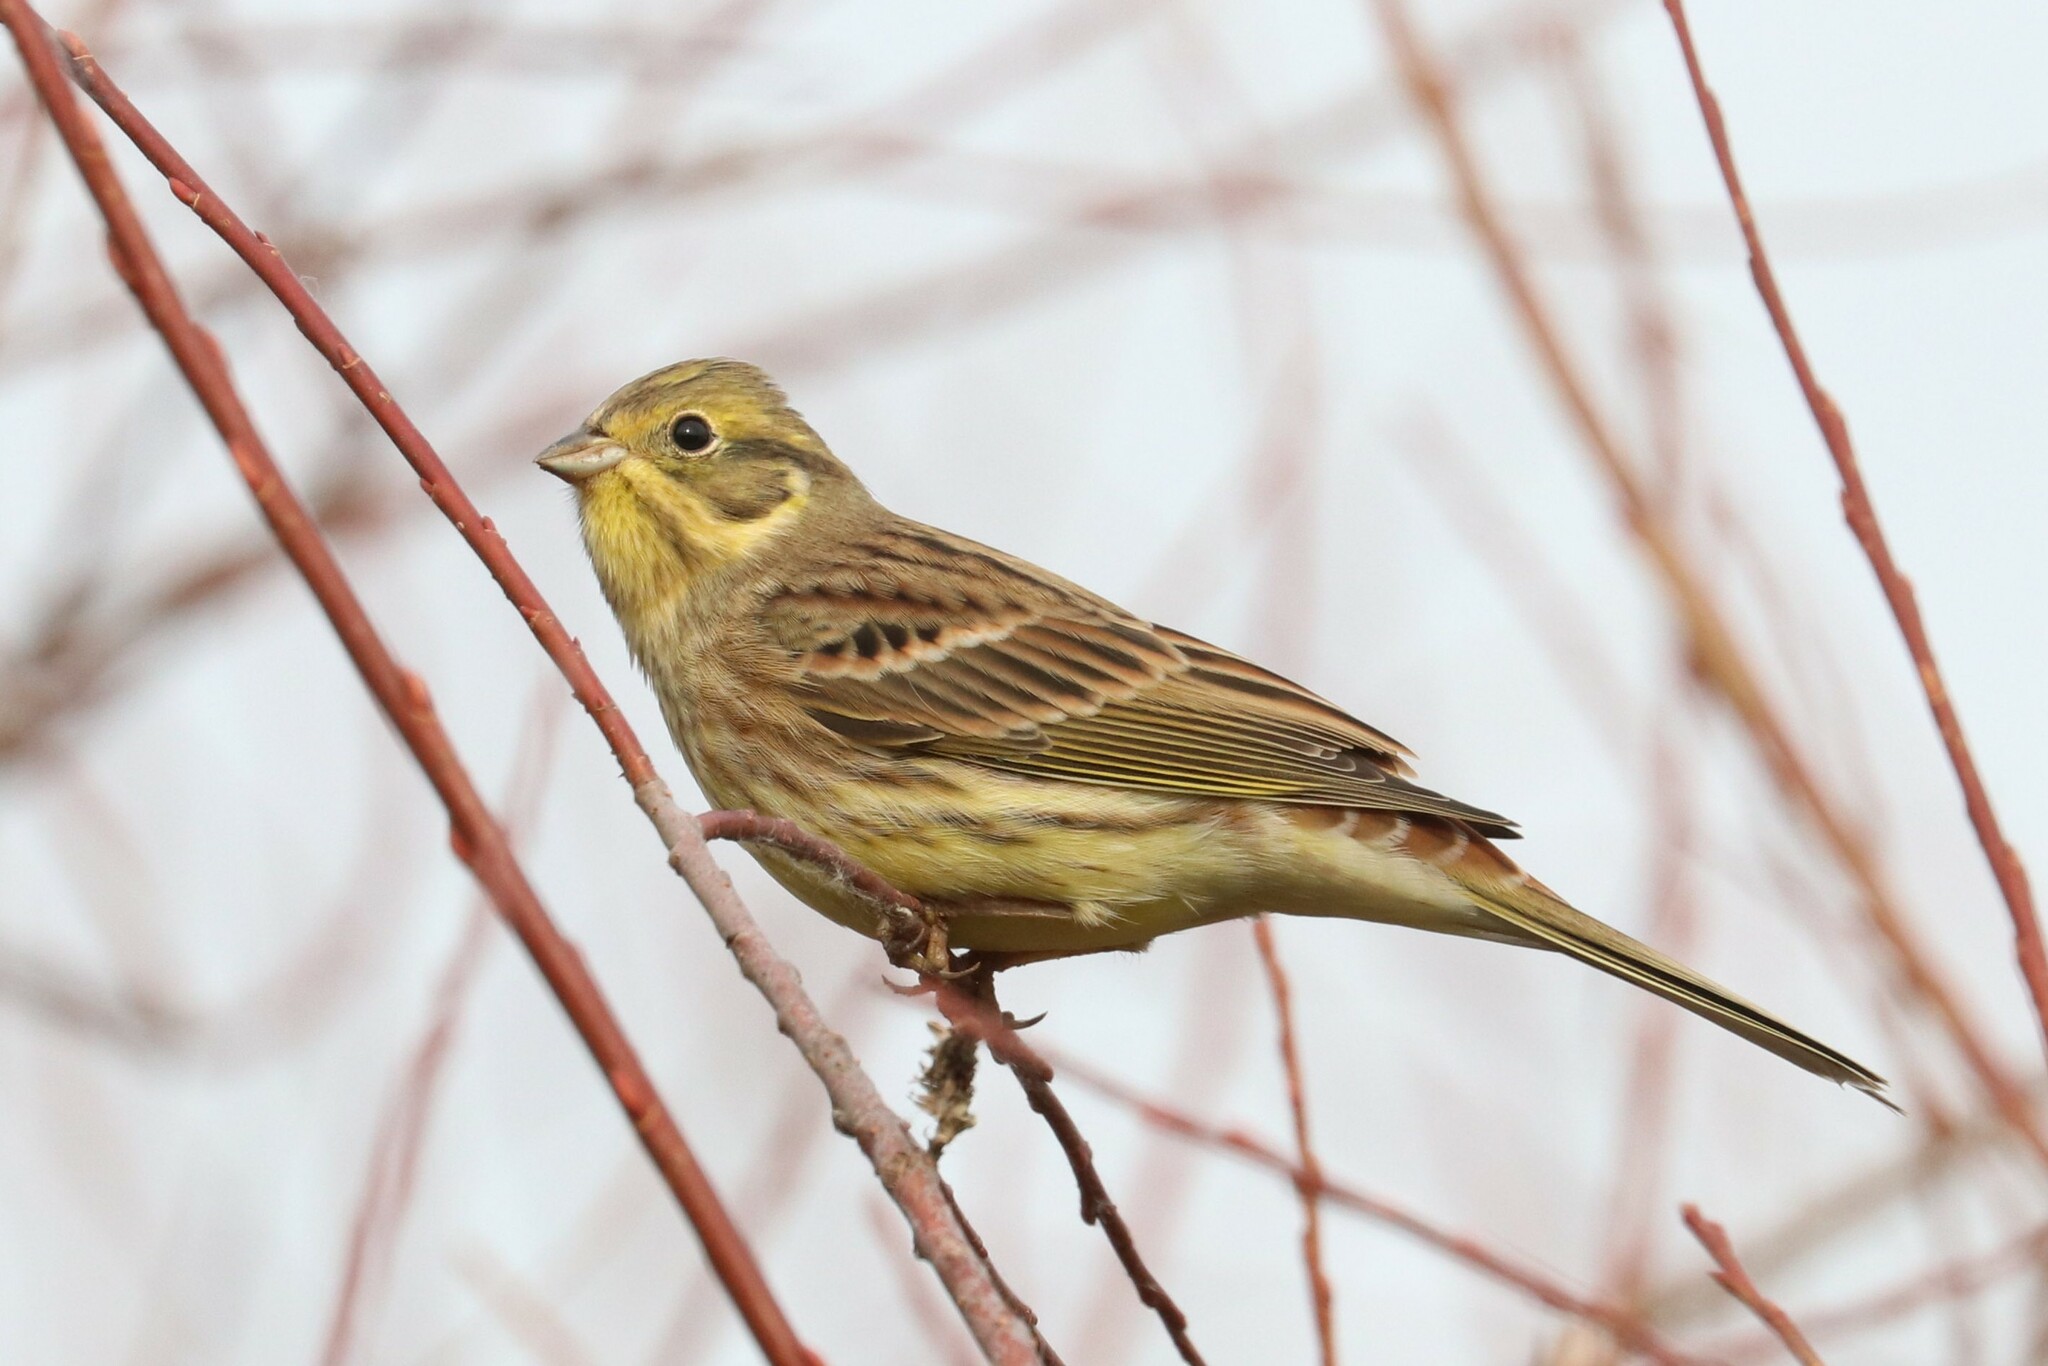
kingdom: Animalia
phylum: Chordata
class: Aves
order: Passeriformes
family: Emberizidae
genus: Emberiza
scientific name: Emberiza citrinella
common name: Yellowhammer
